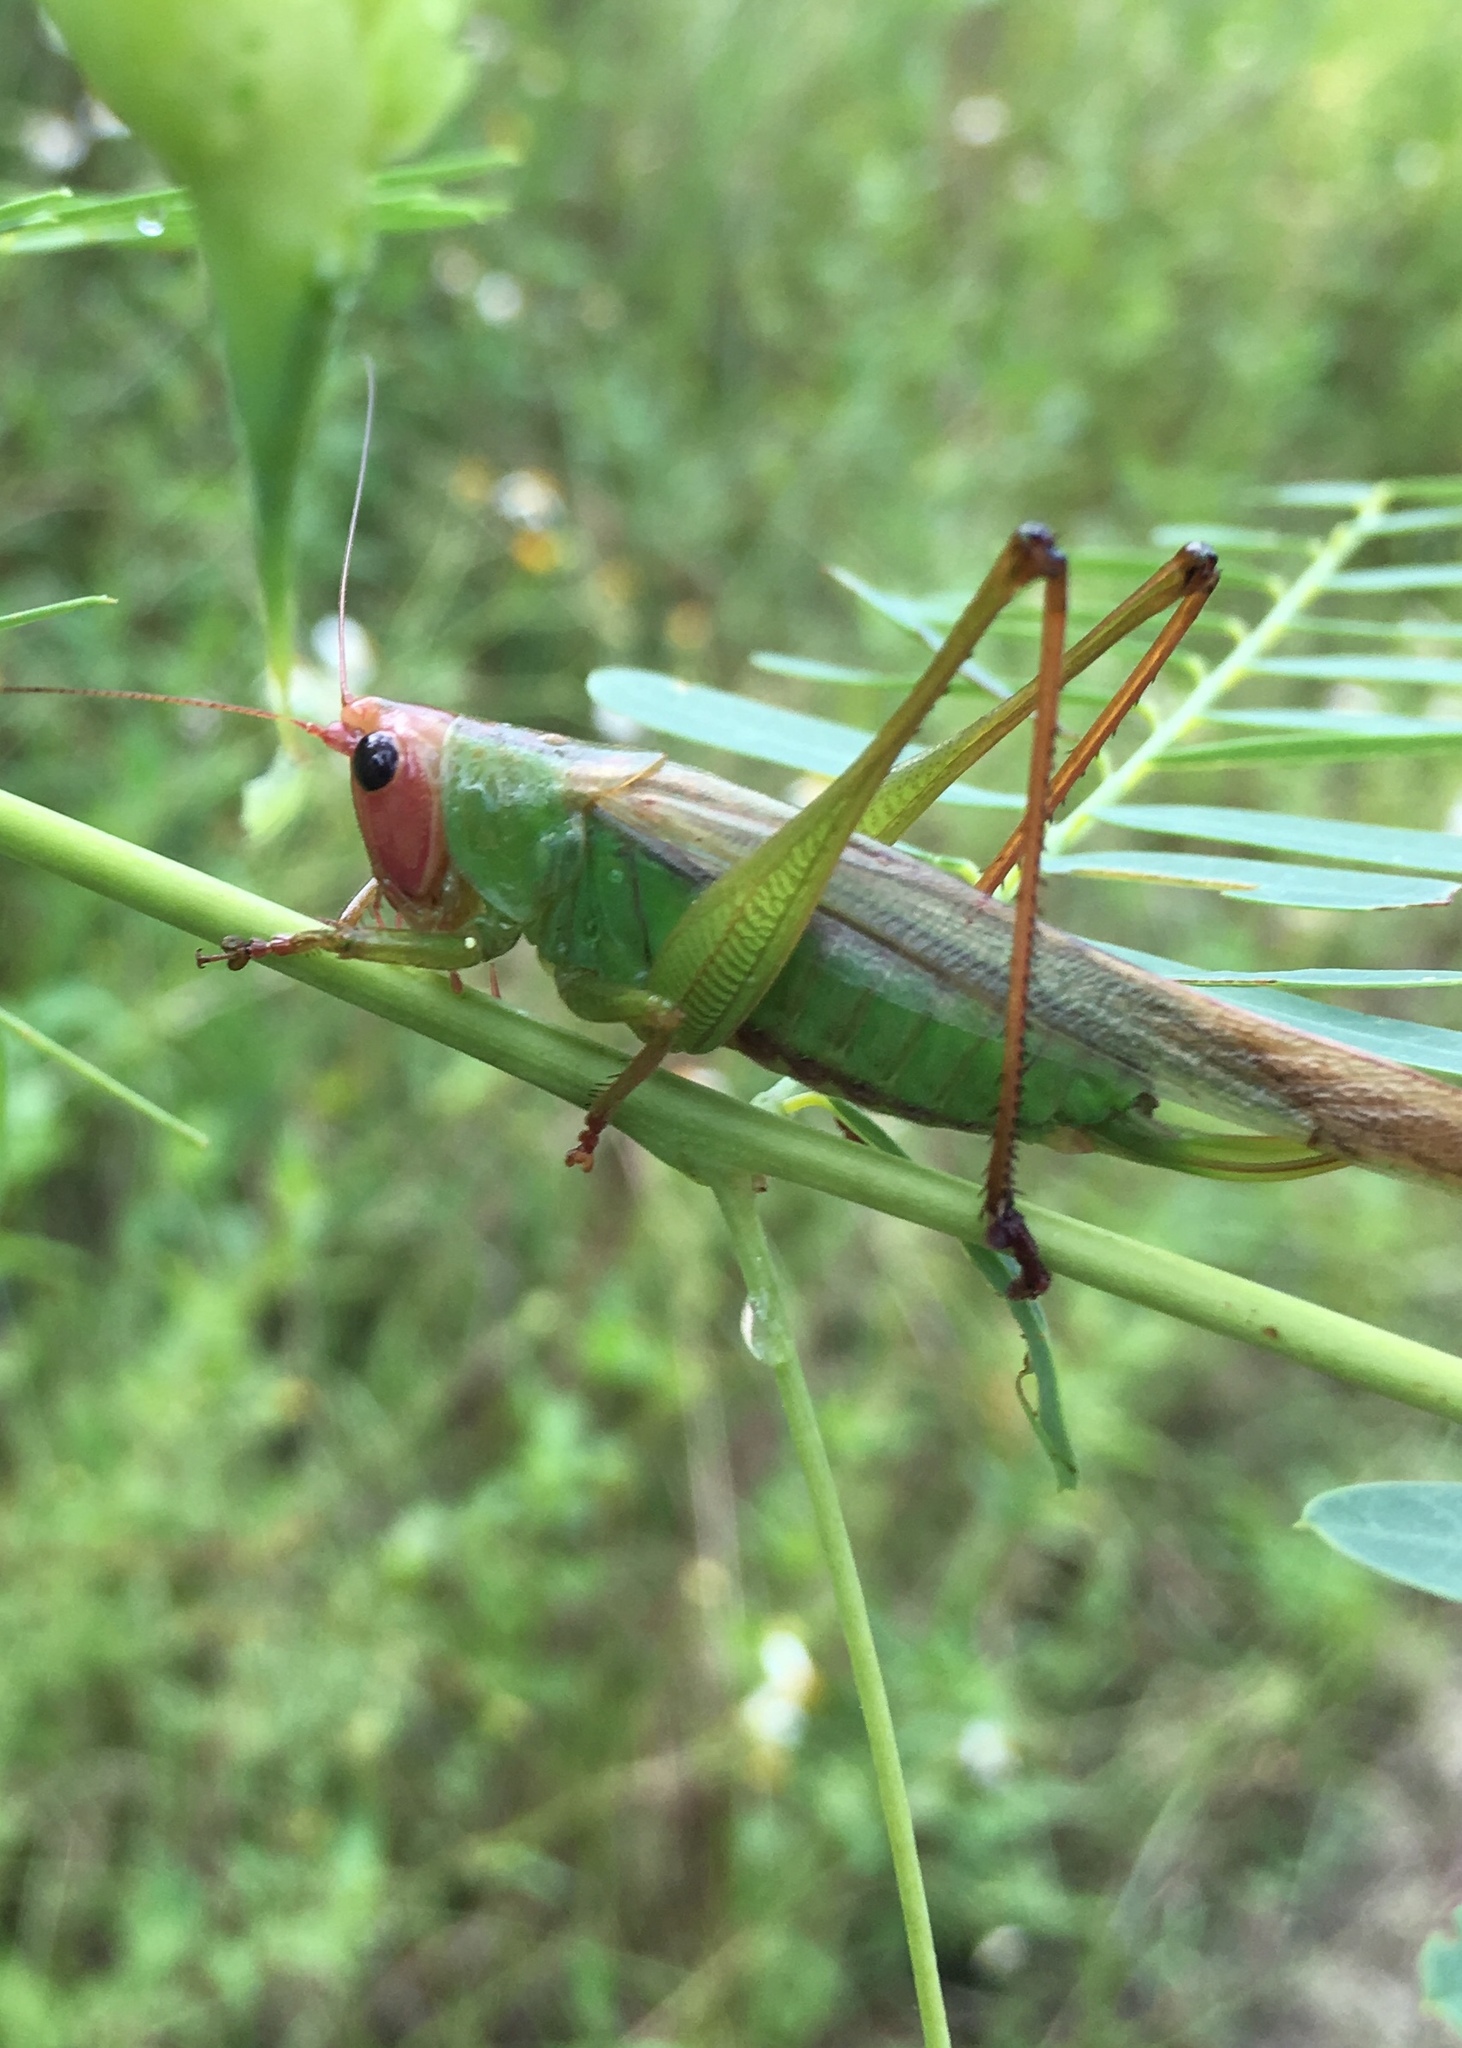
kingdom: Animalia
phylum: Arthropoda
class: Insecta
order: Orthoptera
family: Tettigoniidae
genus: Orchelimum
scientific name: Orchelimum erythrocephalum
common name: Red-headed meadow katydid
